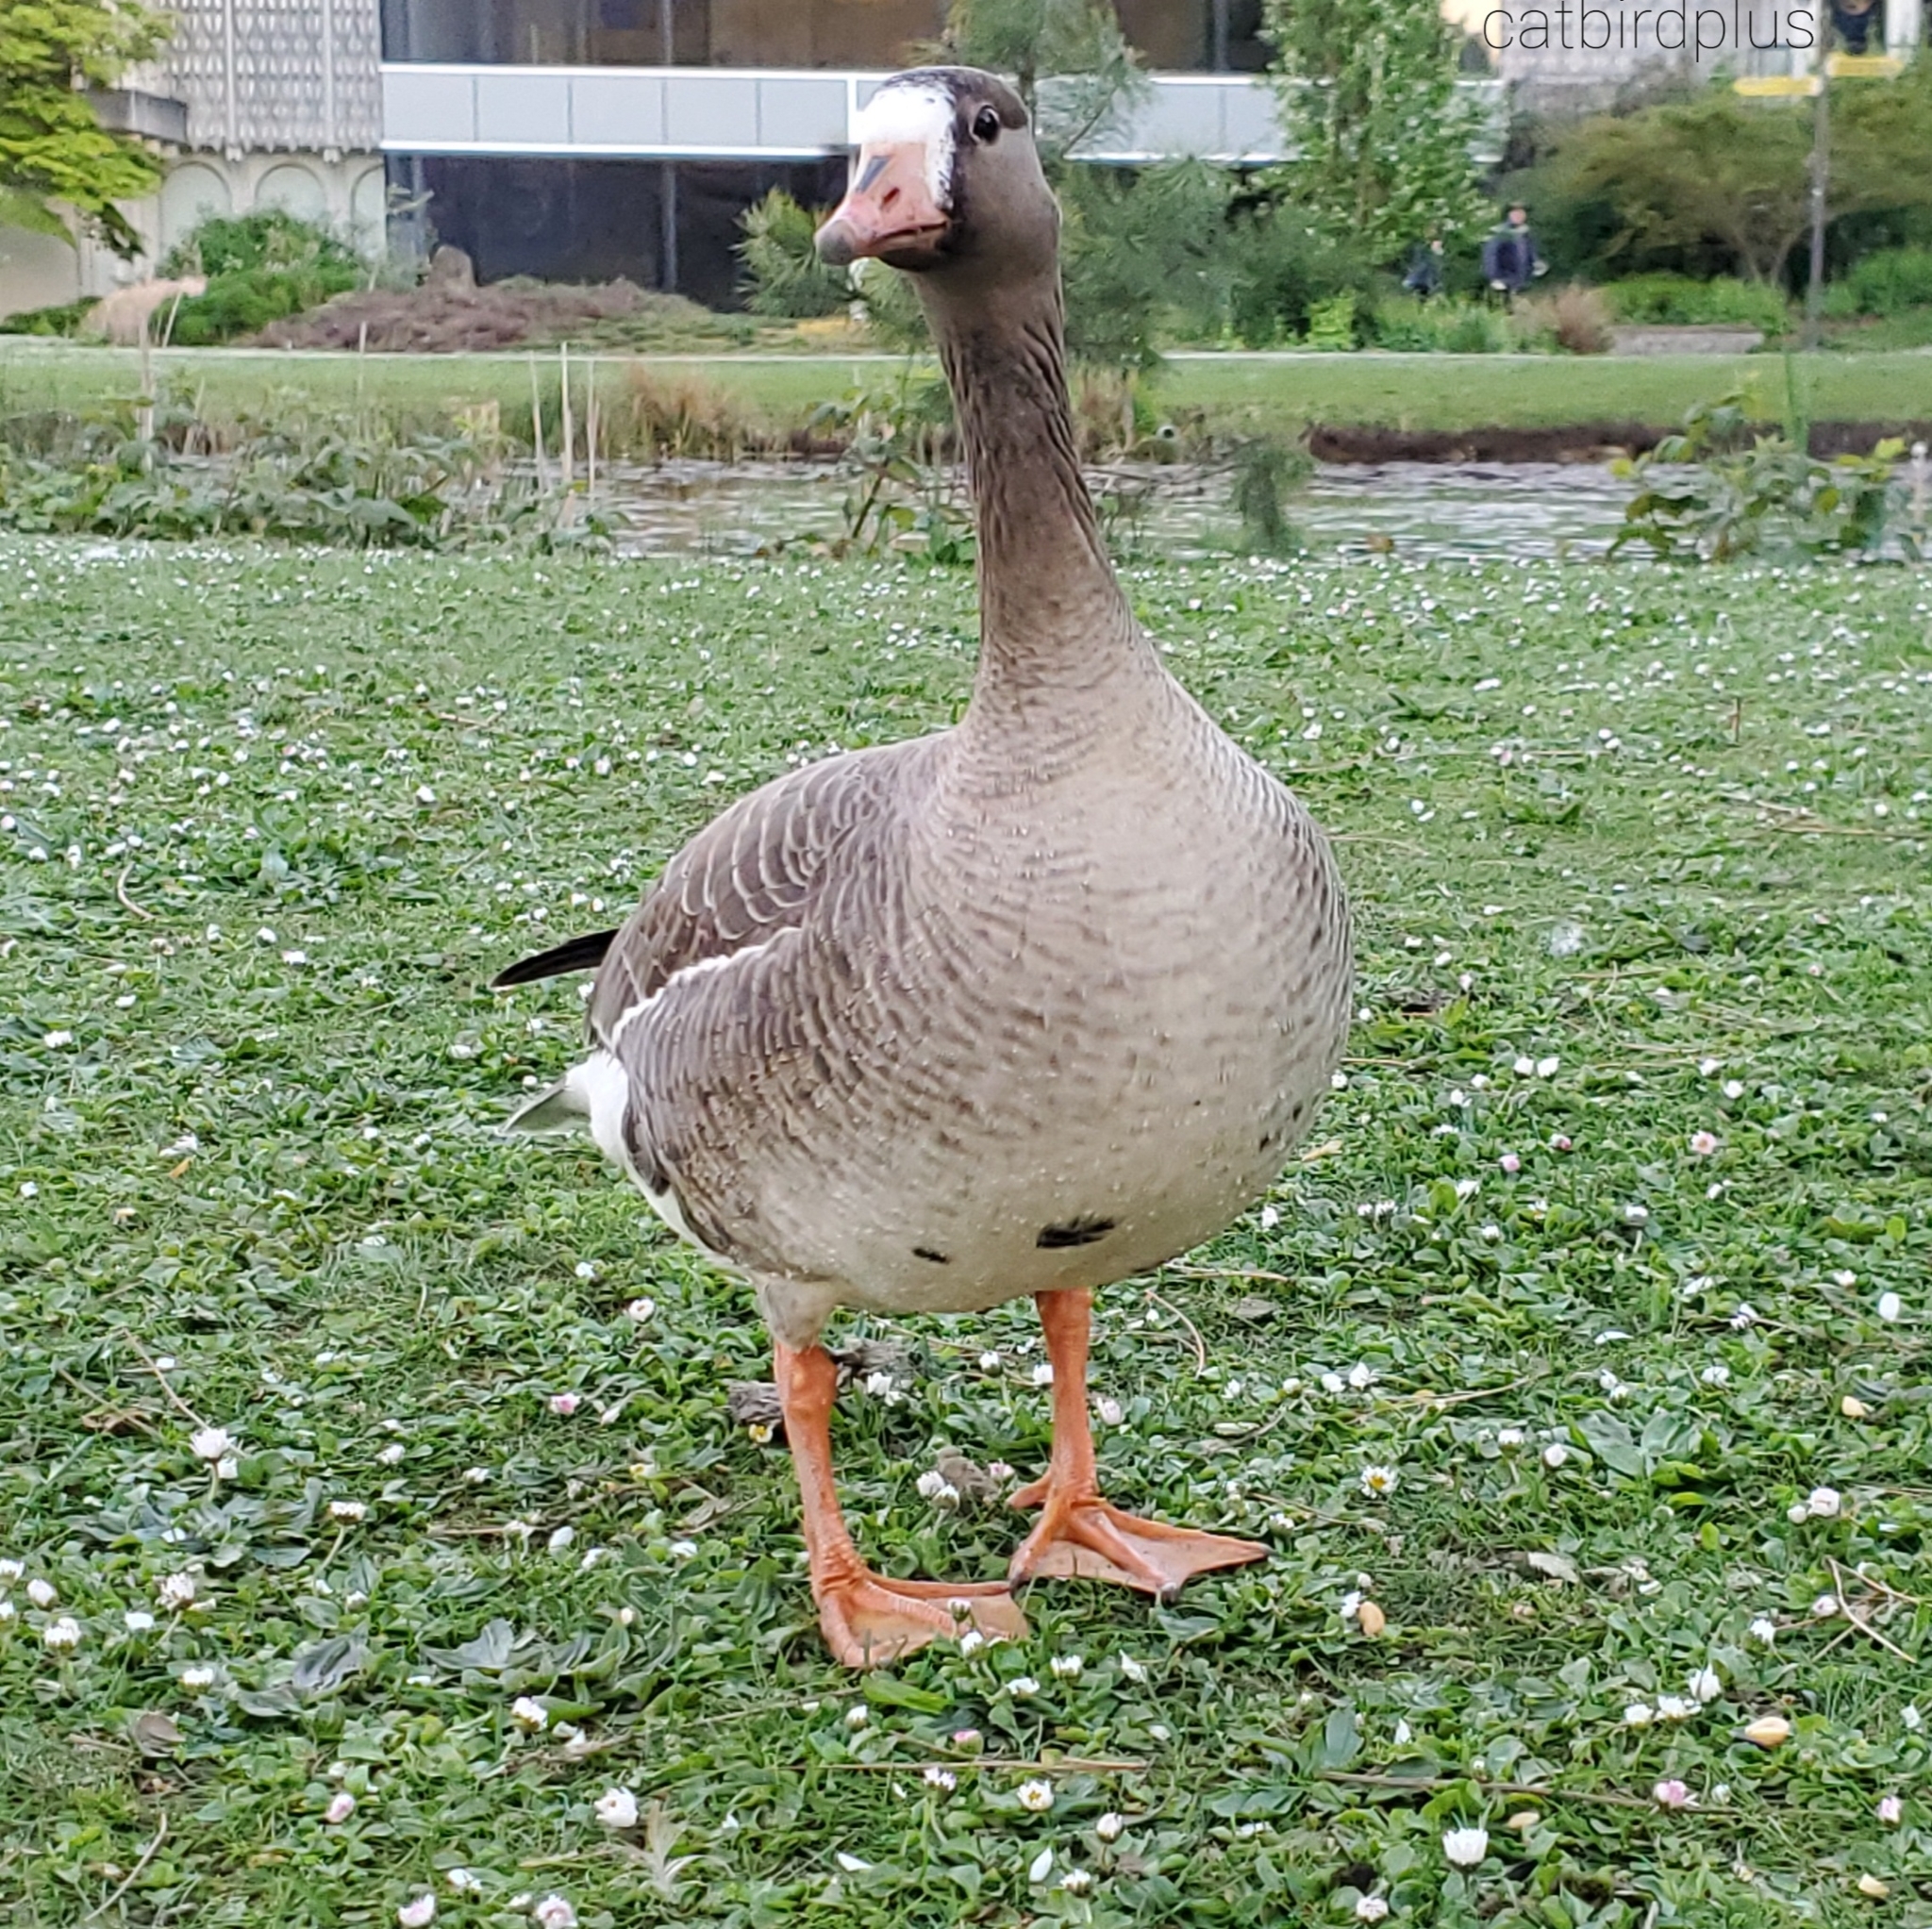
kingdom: Animalia
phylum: Chordata
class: Aves
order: Anseriformes
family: Anatidae
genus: Anser
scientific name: Anser albifrons
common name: Greater white-fronted goose
